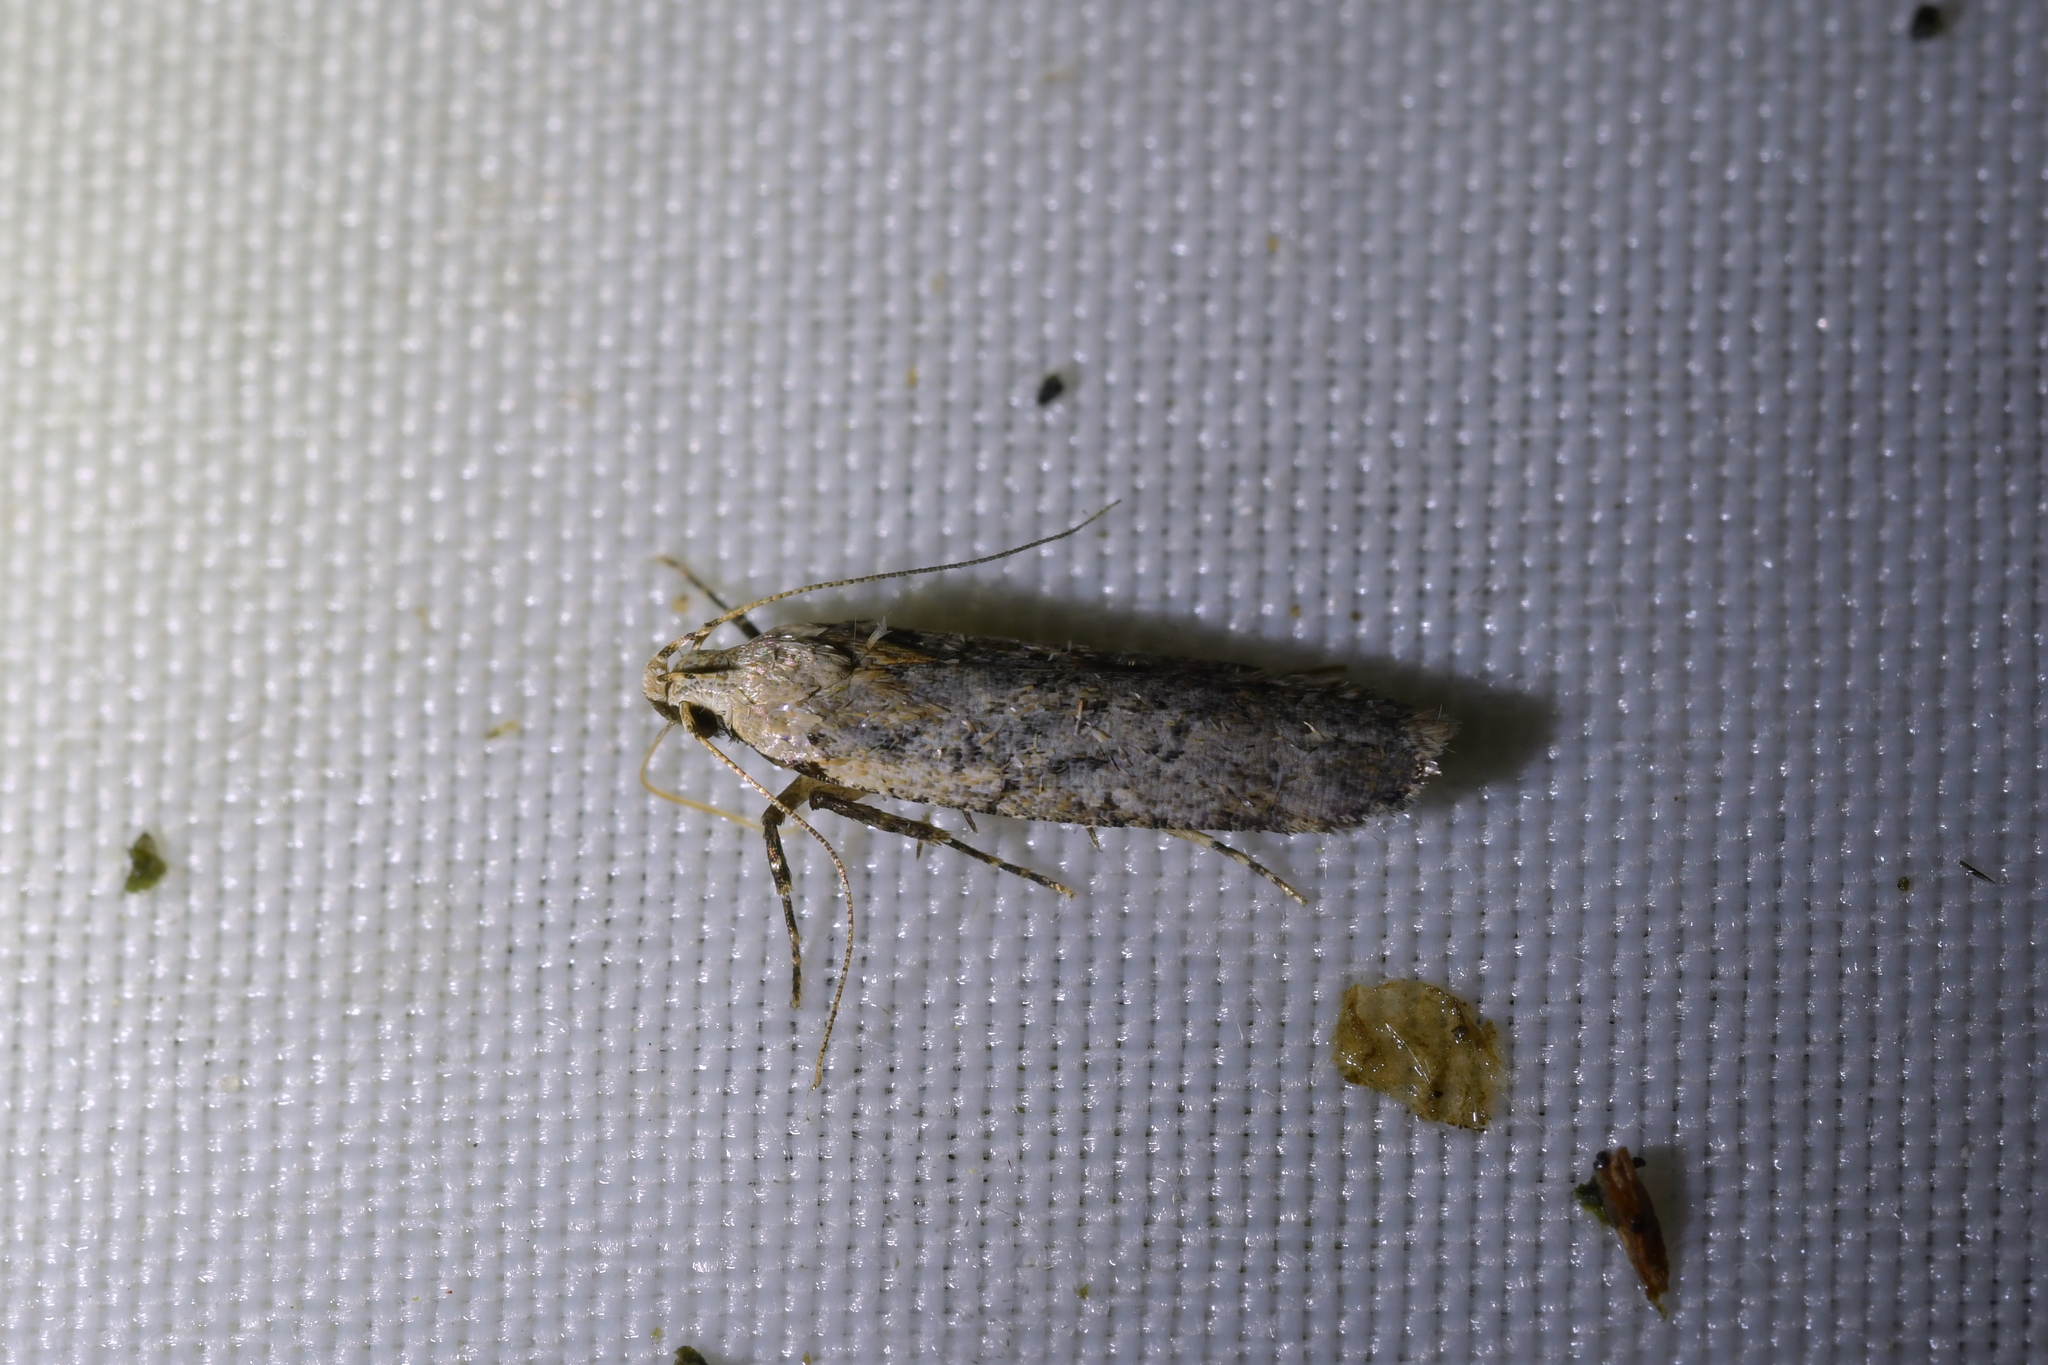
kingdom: Animalia
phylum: Arthropoda
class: Insecta
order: Lepidoptera
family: Gelechiidae
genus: Anisoplaca
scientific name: Anisoplaca achyrota
